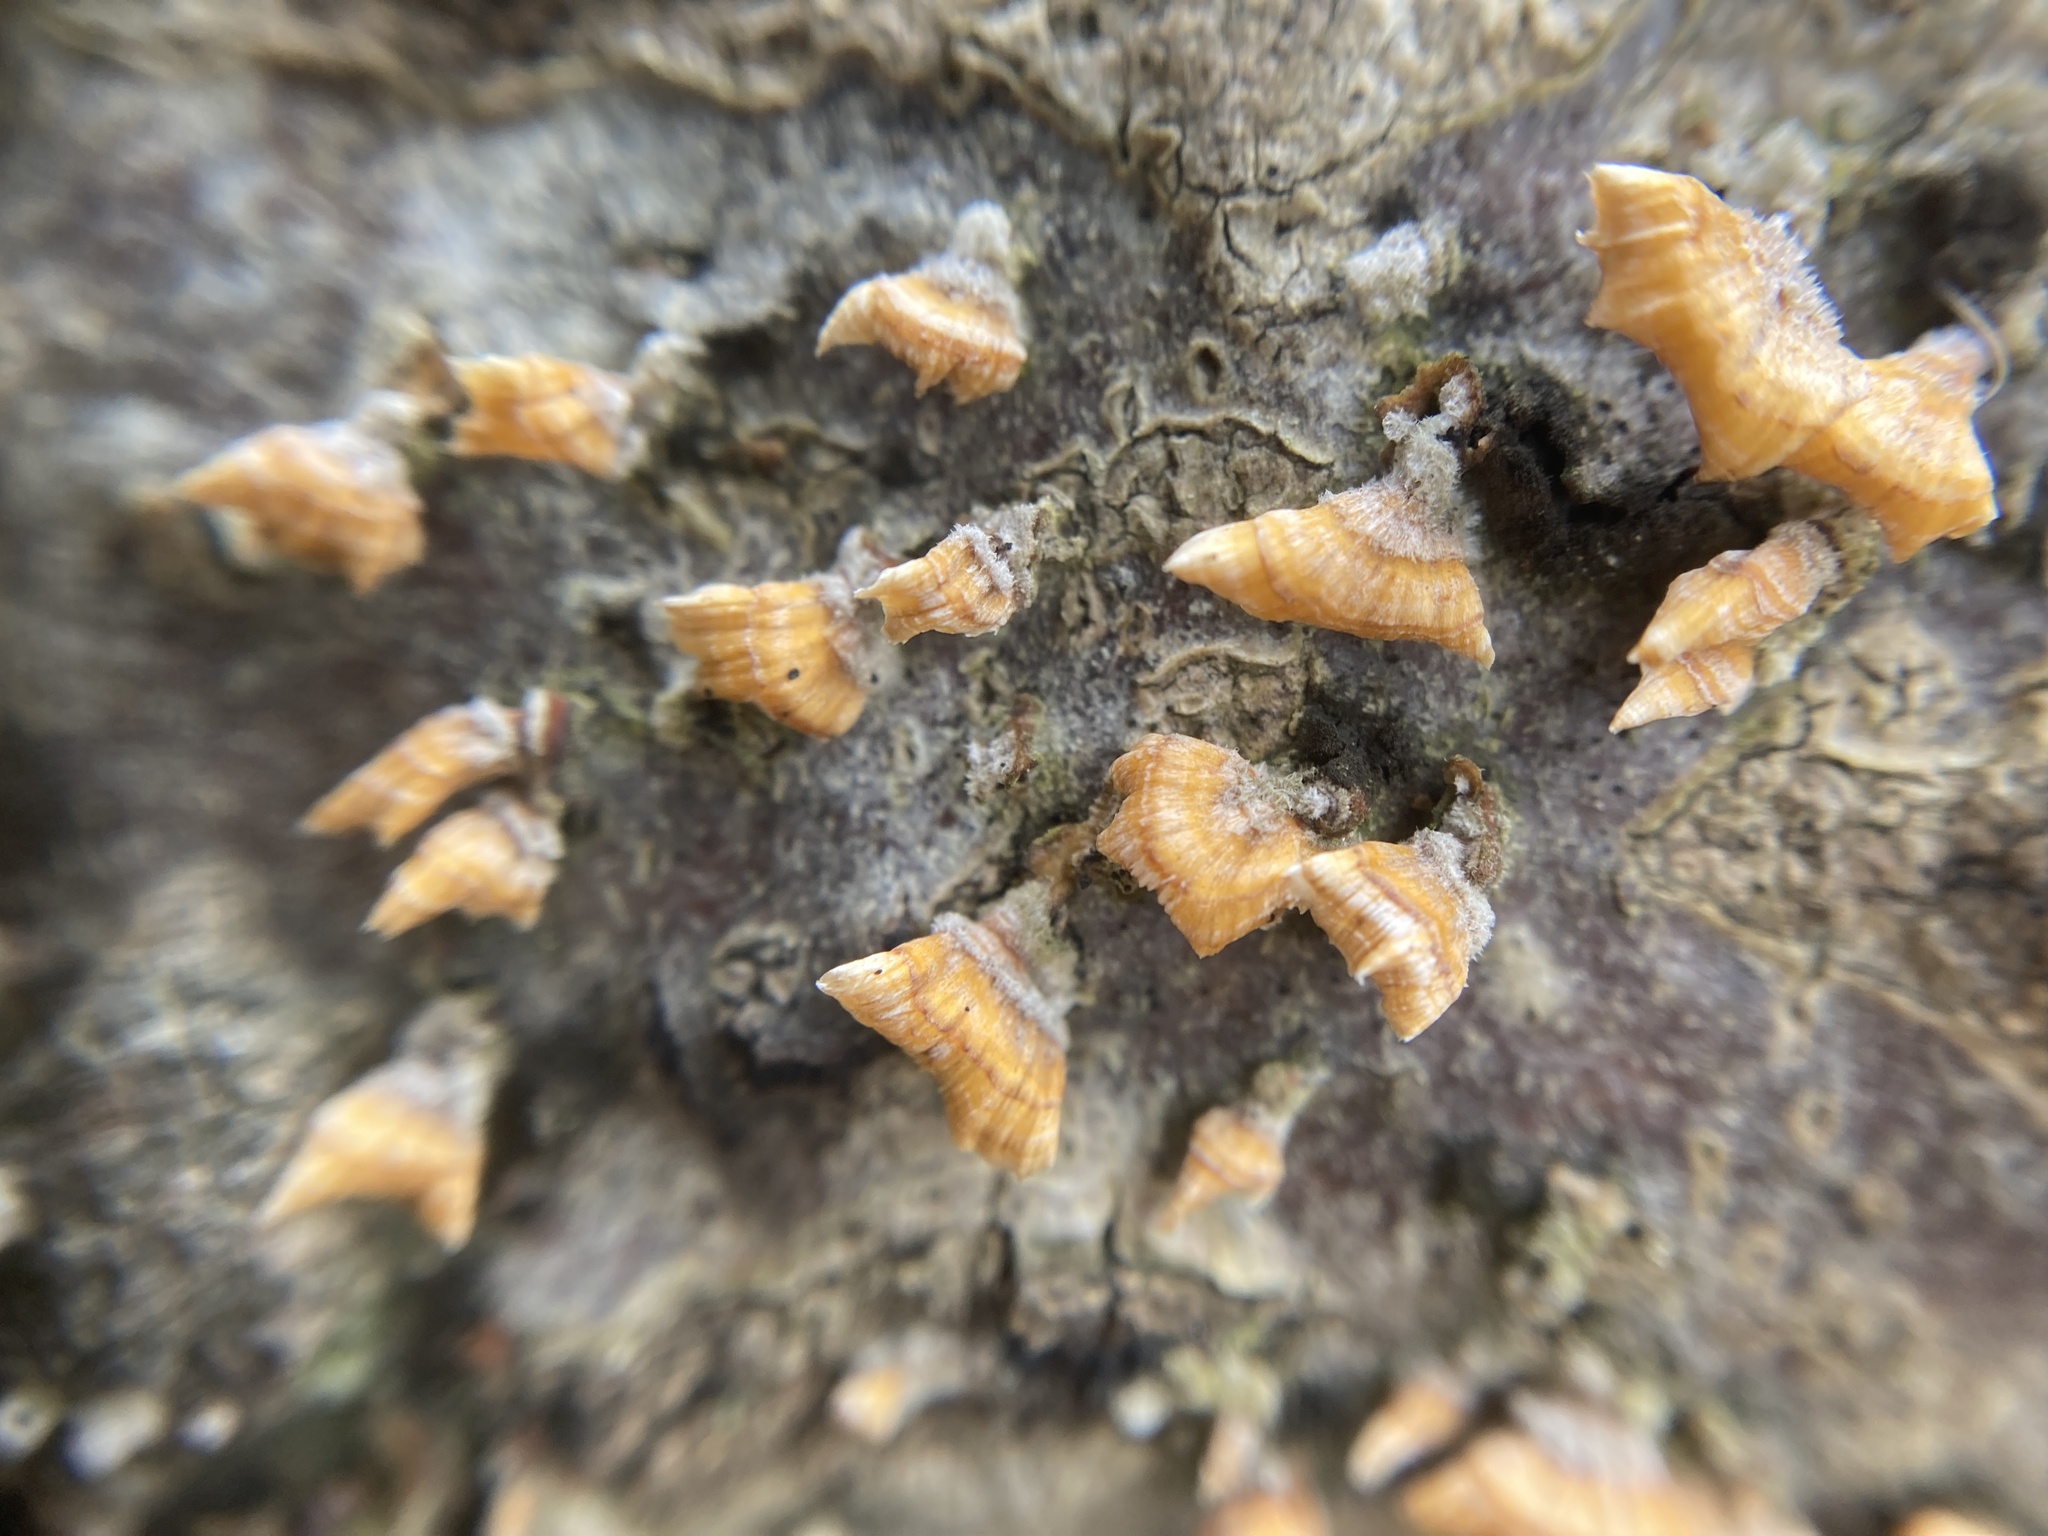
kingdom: Fungi
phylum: Basidiomycota
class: Agaricomycetes
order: Russulales
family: Stereaceae
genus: Stereum
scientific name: Stereum complicatum
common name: Crowded parchment
